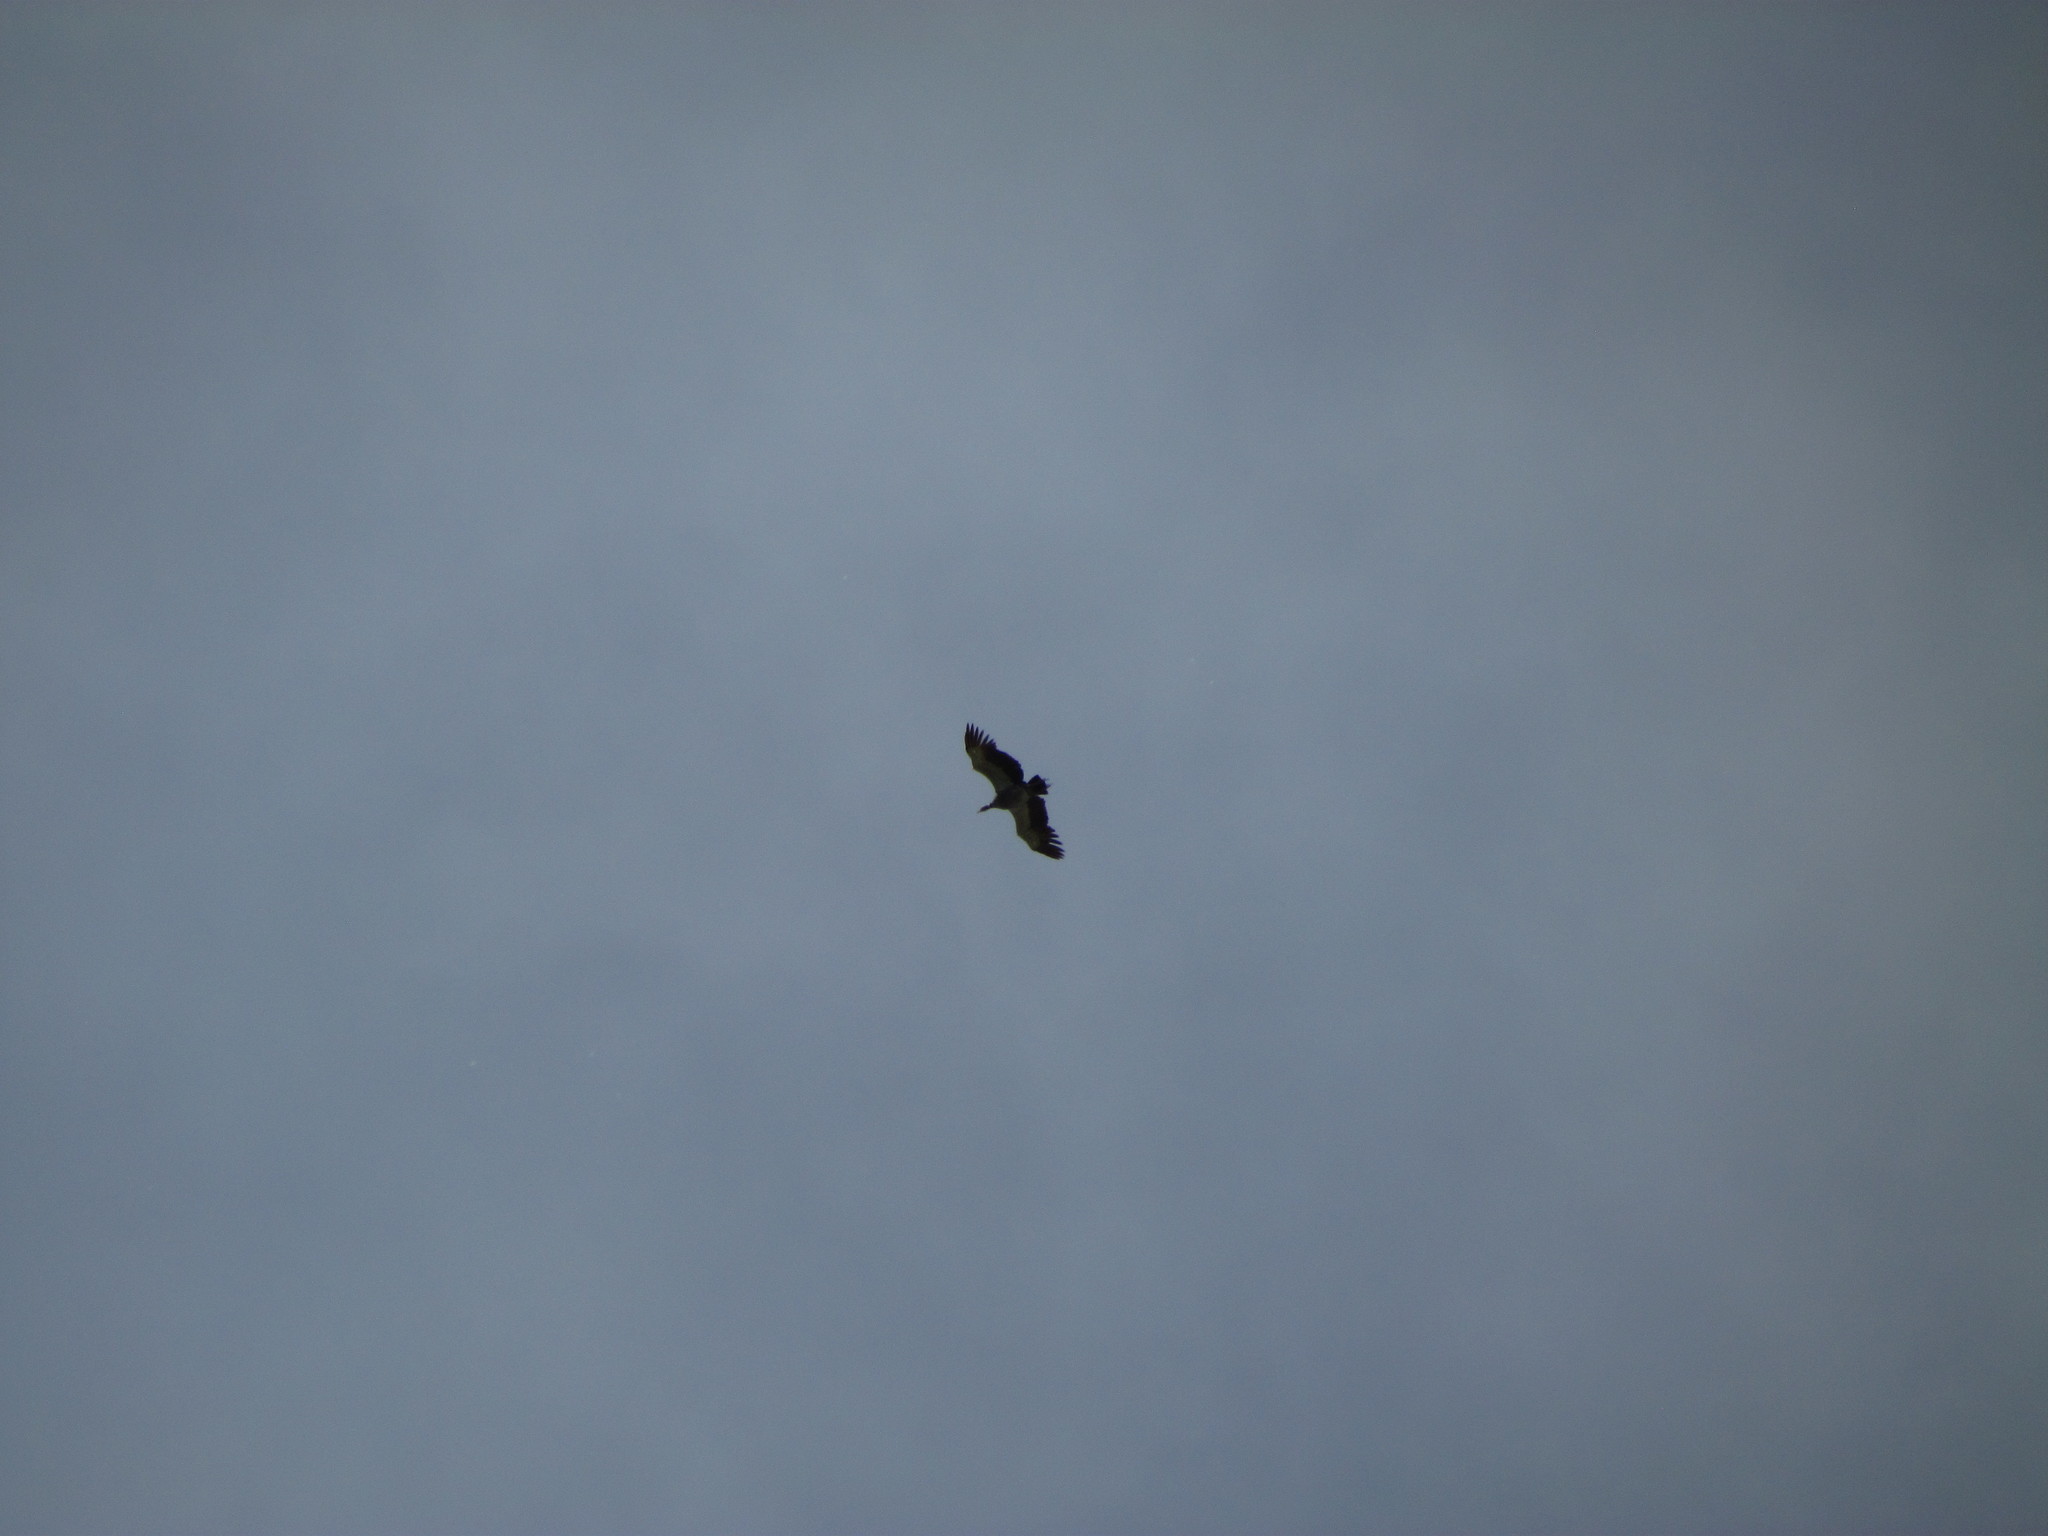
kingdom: Animalia
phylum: Chordata
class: Aves
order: Anseriformes
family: Anhimidae
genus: Chauna
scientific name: Chauna torquata
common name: Southern screamer
